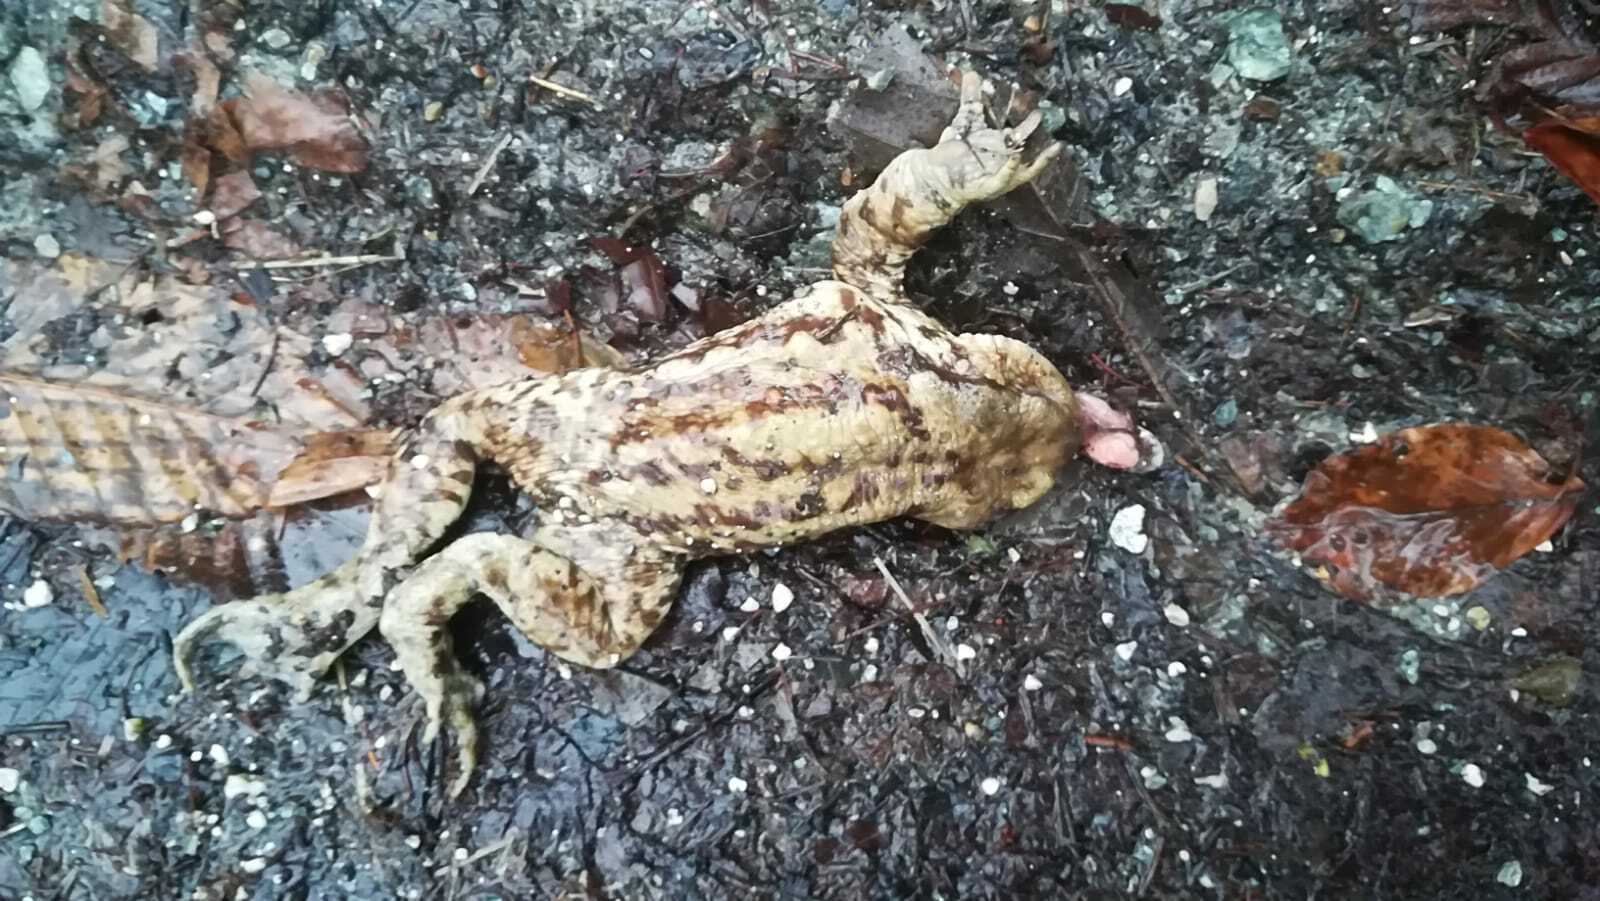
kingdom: Animalia
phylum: Chordata
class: Amphibia
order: Anura
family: Bufonidae
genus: Bufo
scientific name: Bufo bufo
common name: Common toad
